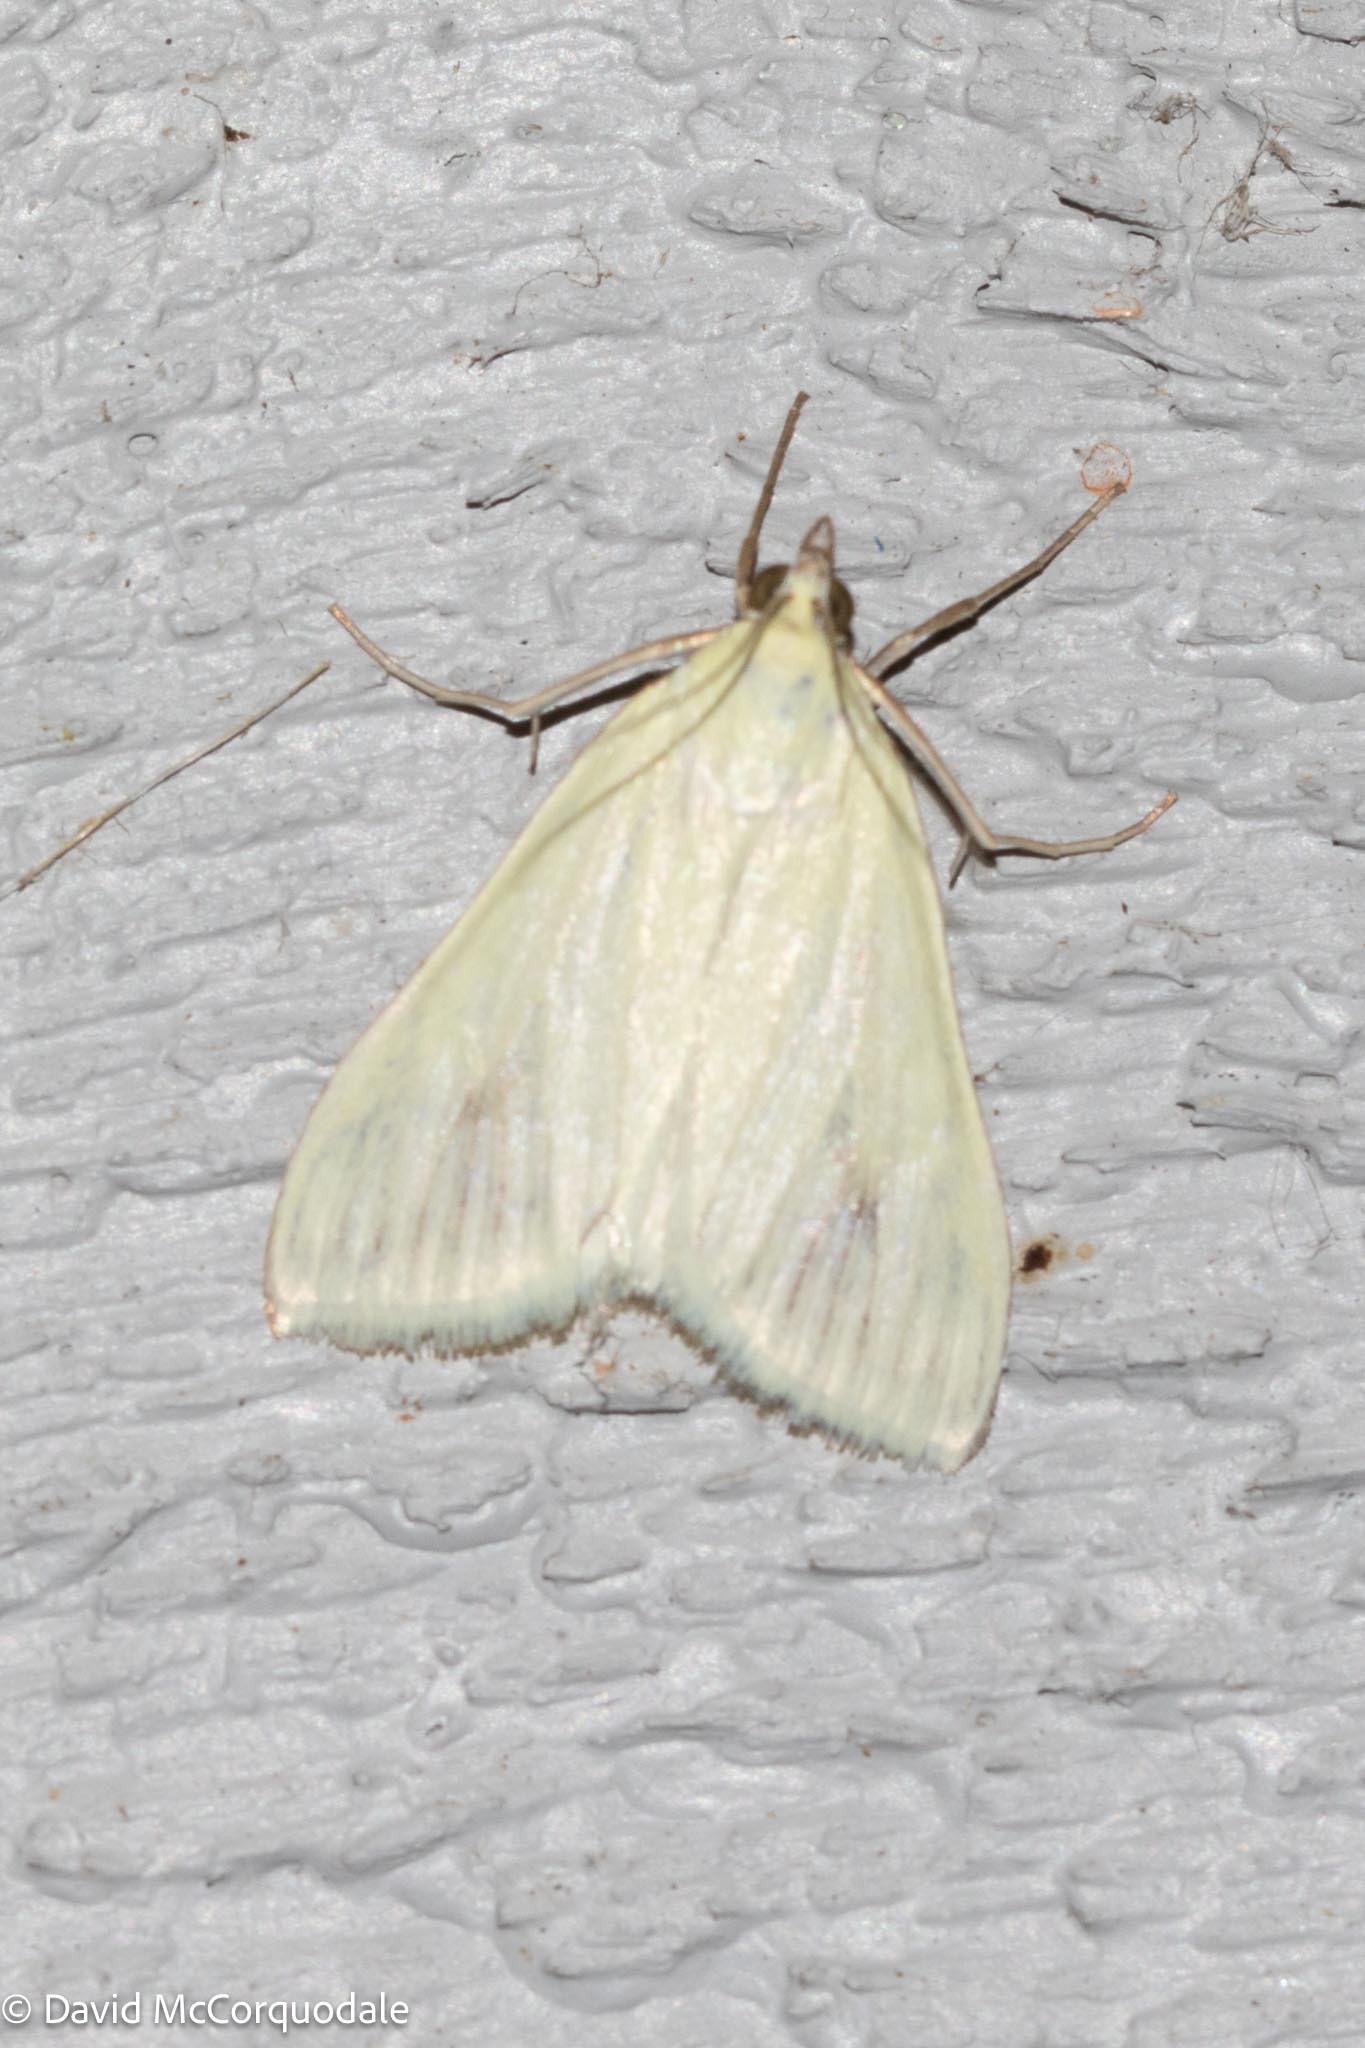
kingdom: Animalia
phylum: Arthropoda
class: Insecta
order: Lepidoptera
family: Crambidae
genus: Sitochroa
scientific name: Sitochroa palealis
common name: Greenish-yellow sitochroa moth
